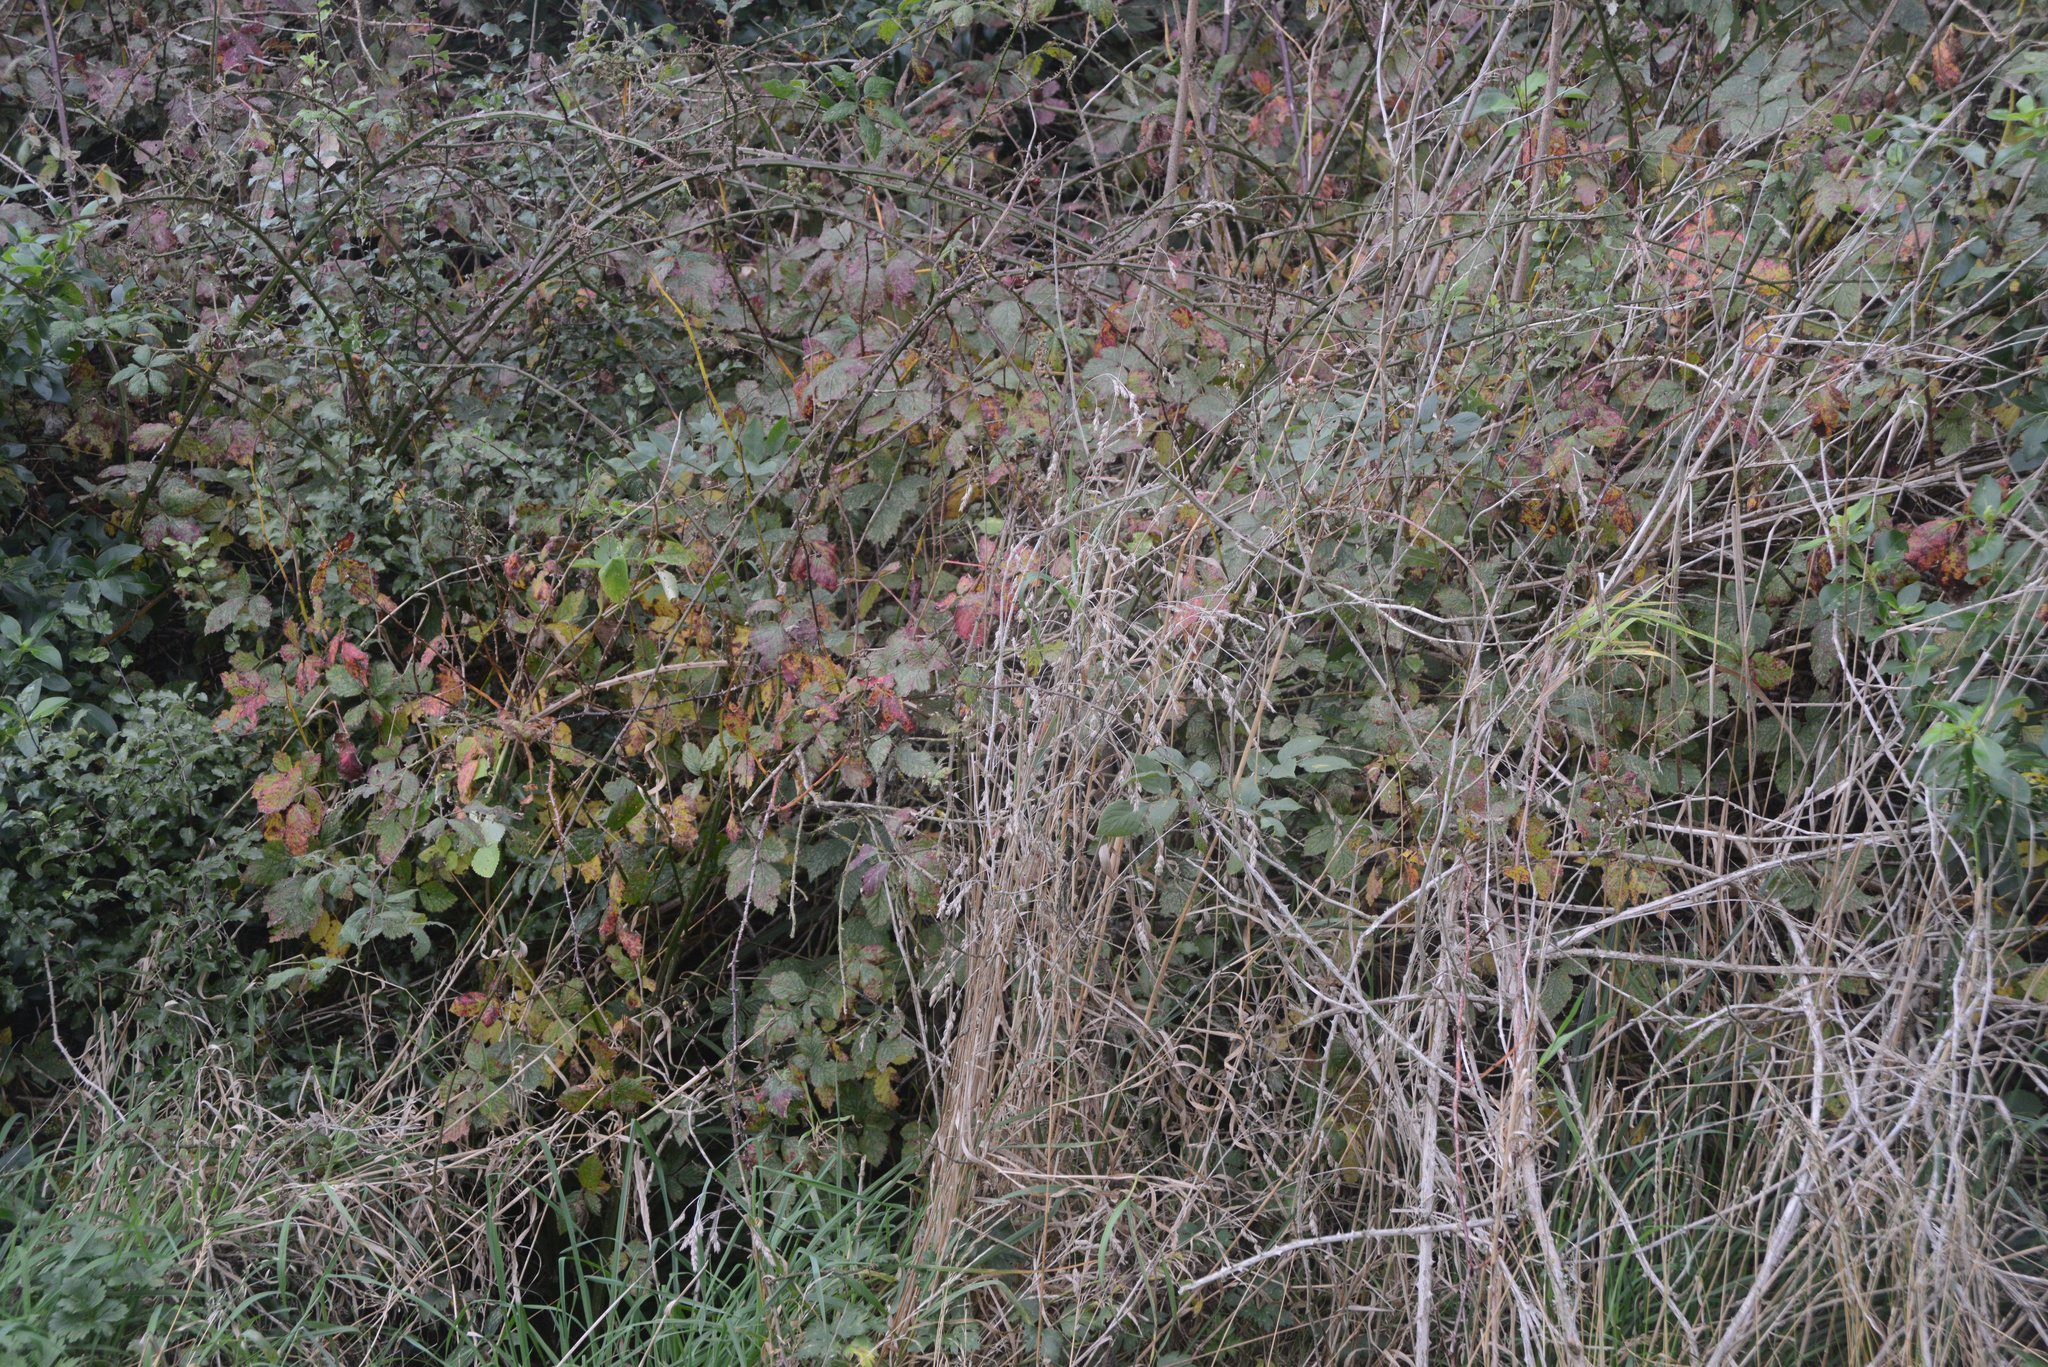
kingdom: Plantae
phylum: Tracheophyta
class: Magnoliopsida
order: Rosales
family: Rosaceae
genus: Rubus
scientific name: Rubus
